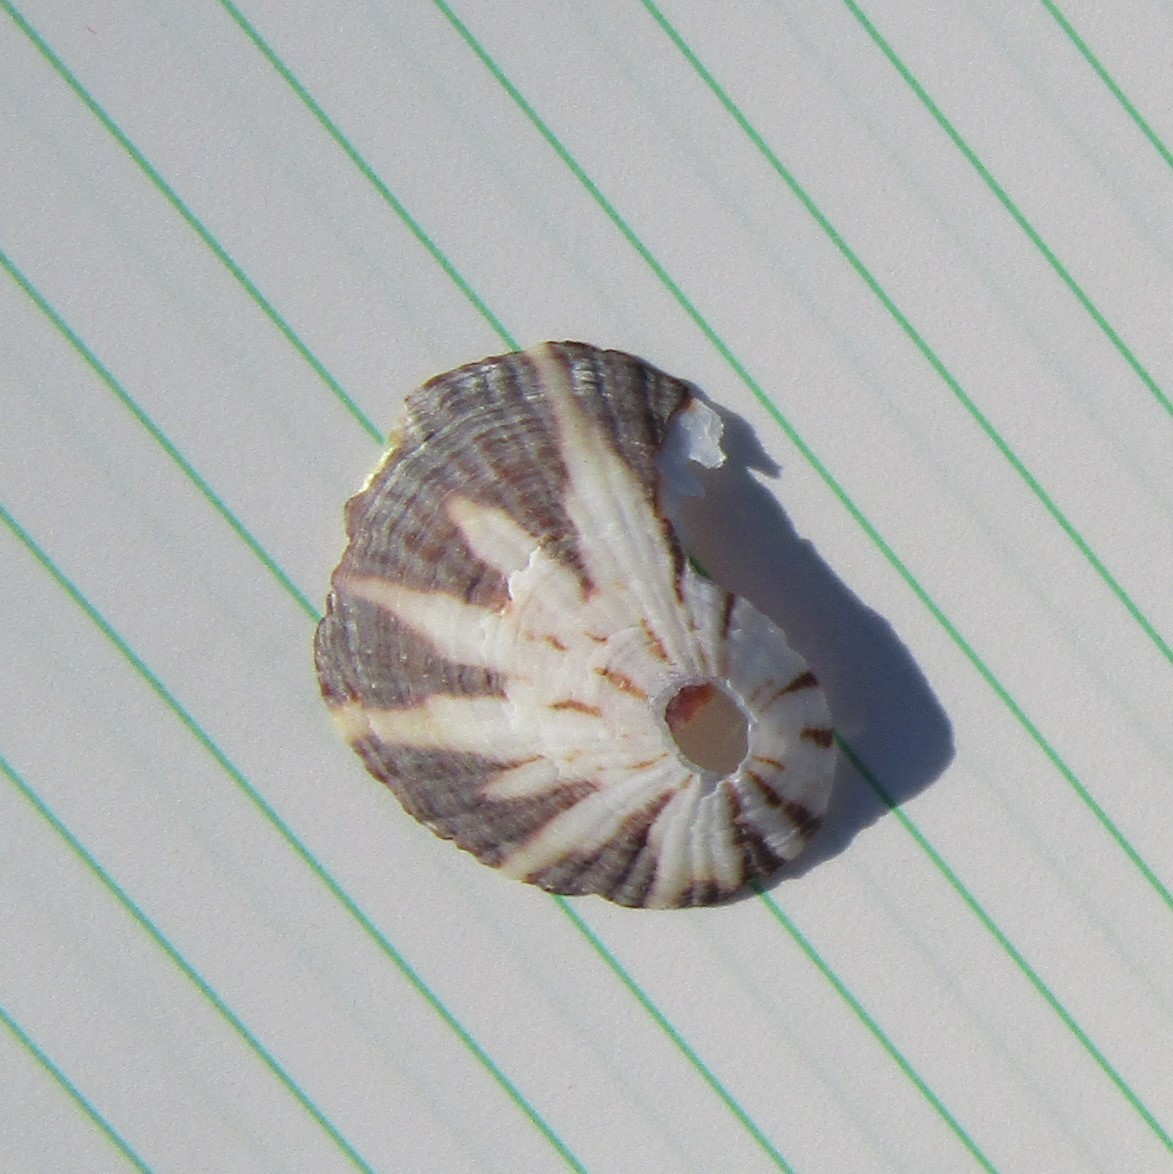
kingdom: Animalia
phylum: Mollusca
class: Gastropoda
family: Nacellidae
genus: Cellana
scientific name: Cellana stellifera
